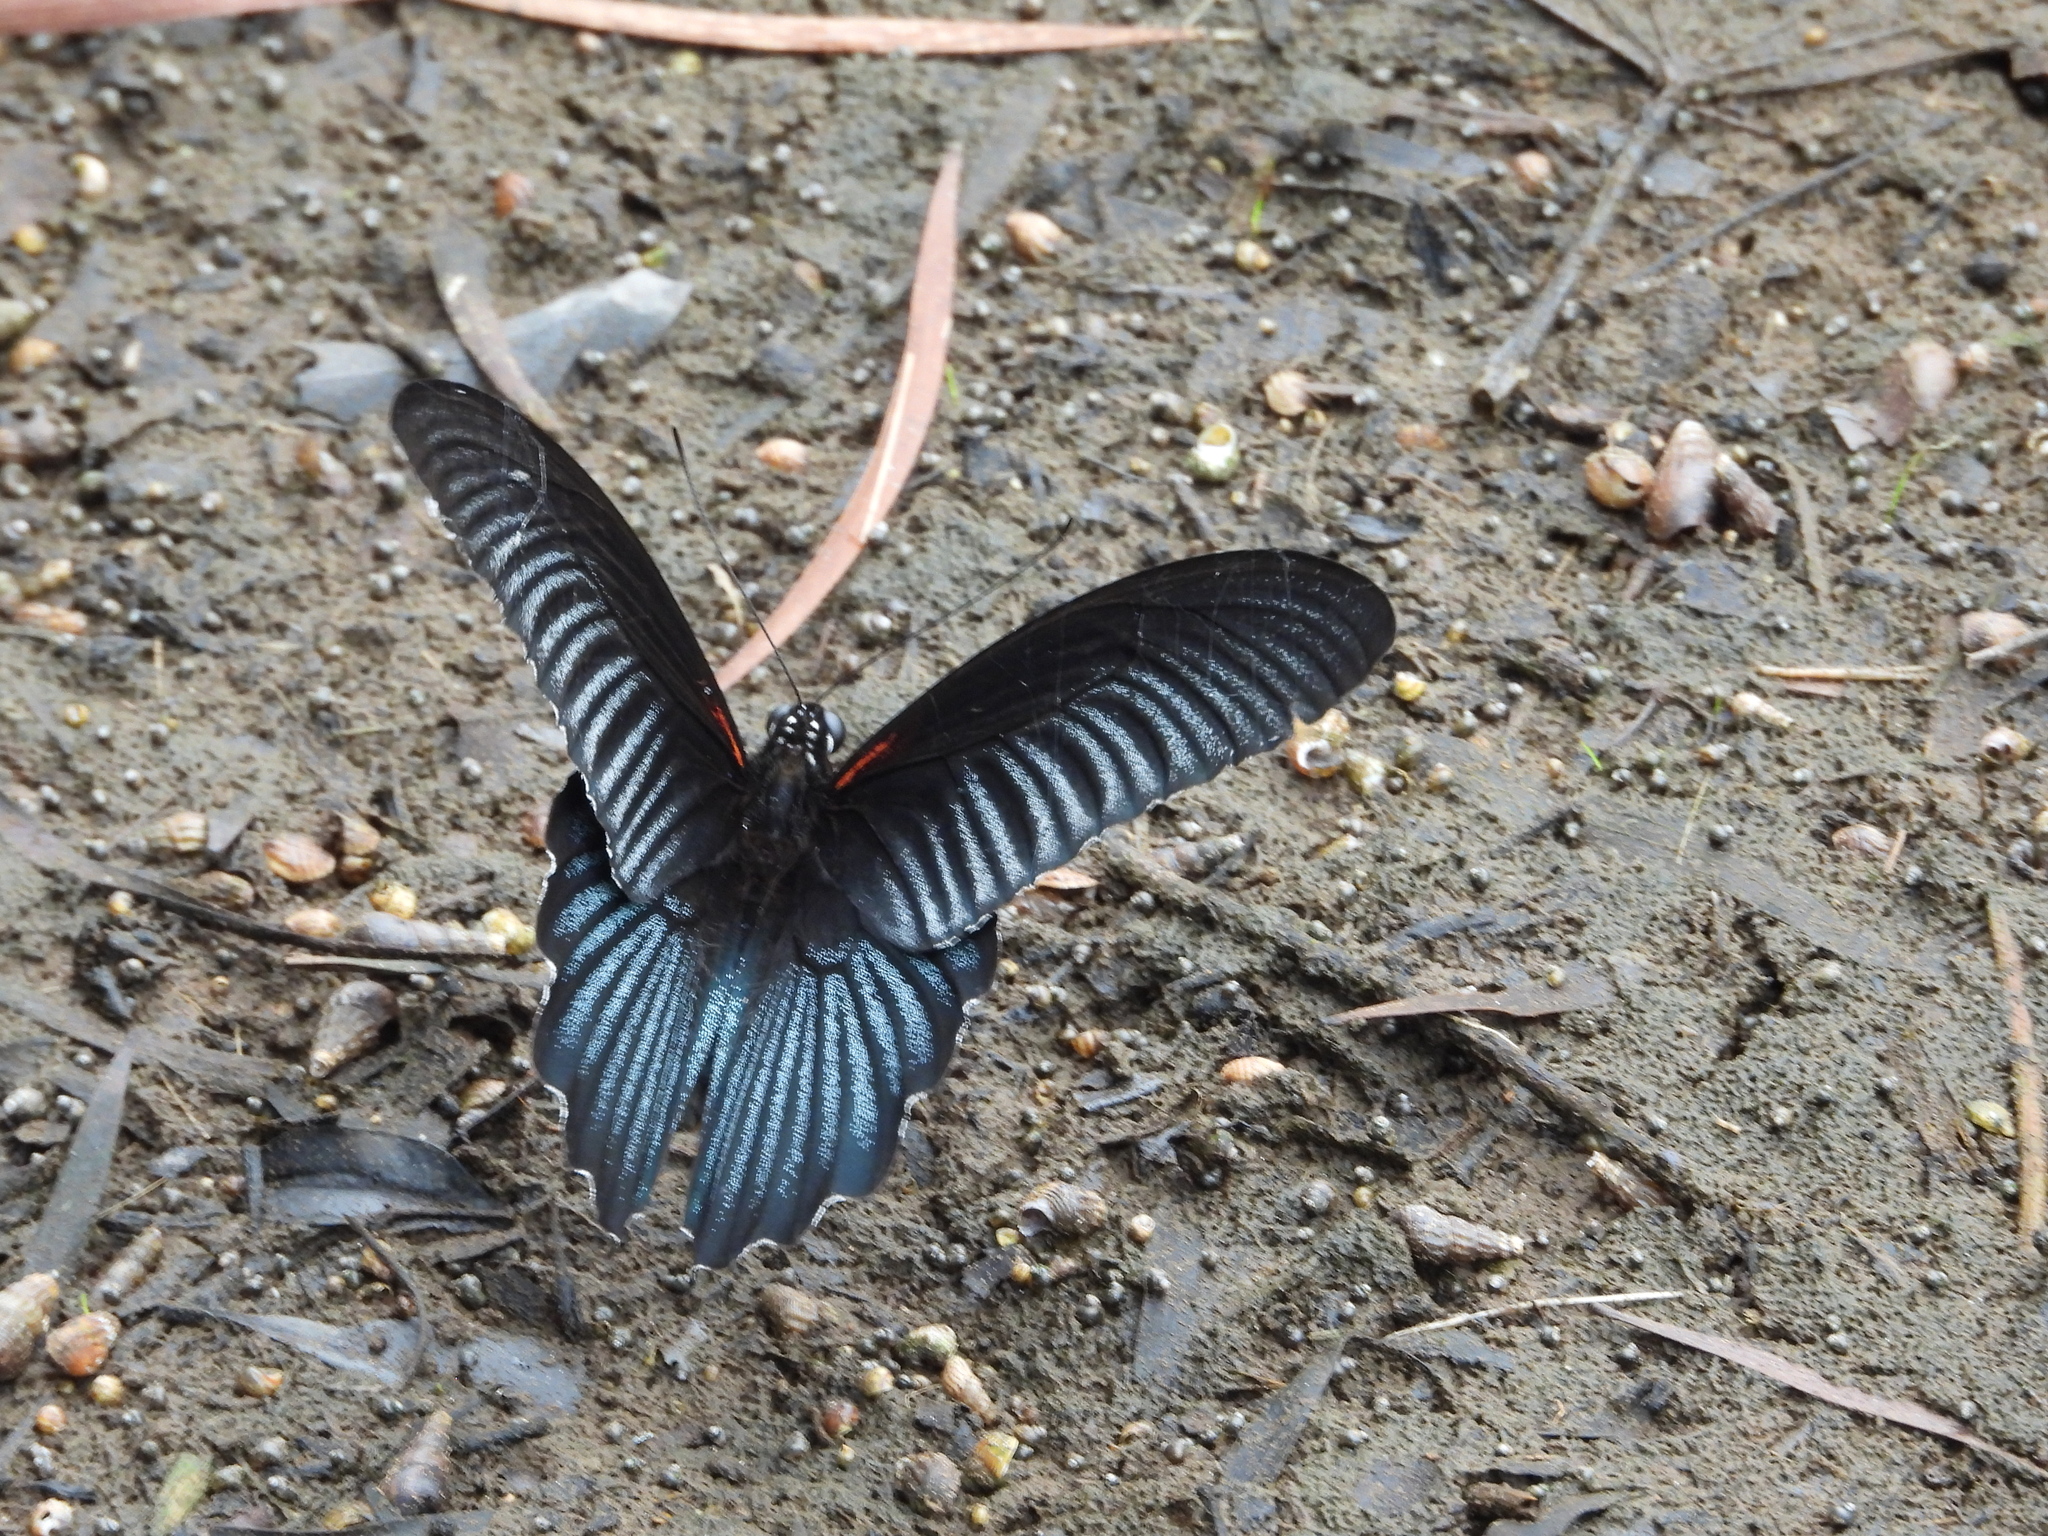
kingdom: Animalia
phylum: Arthropoda
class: Insecta
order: Lepidoptera
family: Papilionidae
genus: Papilio
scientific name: Papilio memnon
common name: Great mormon
